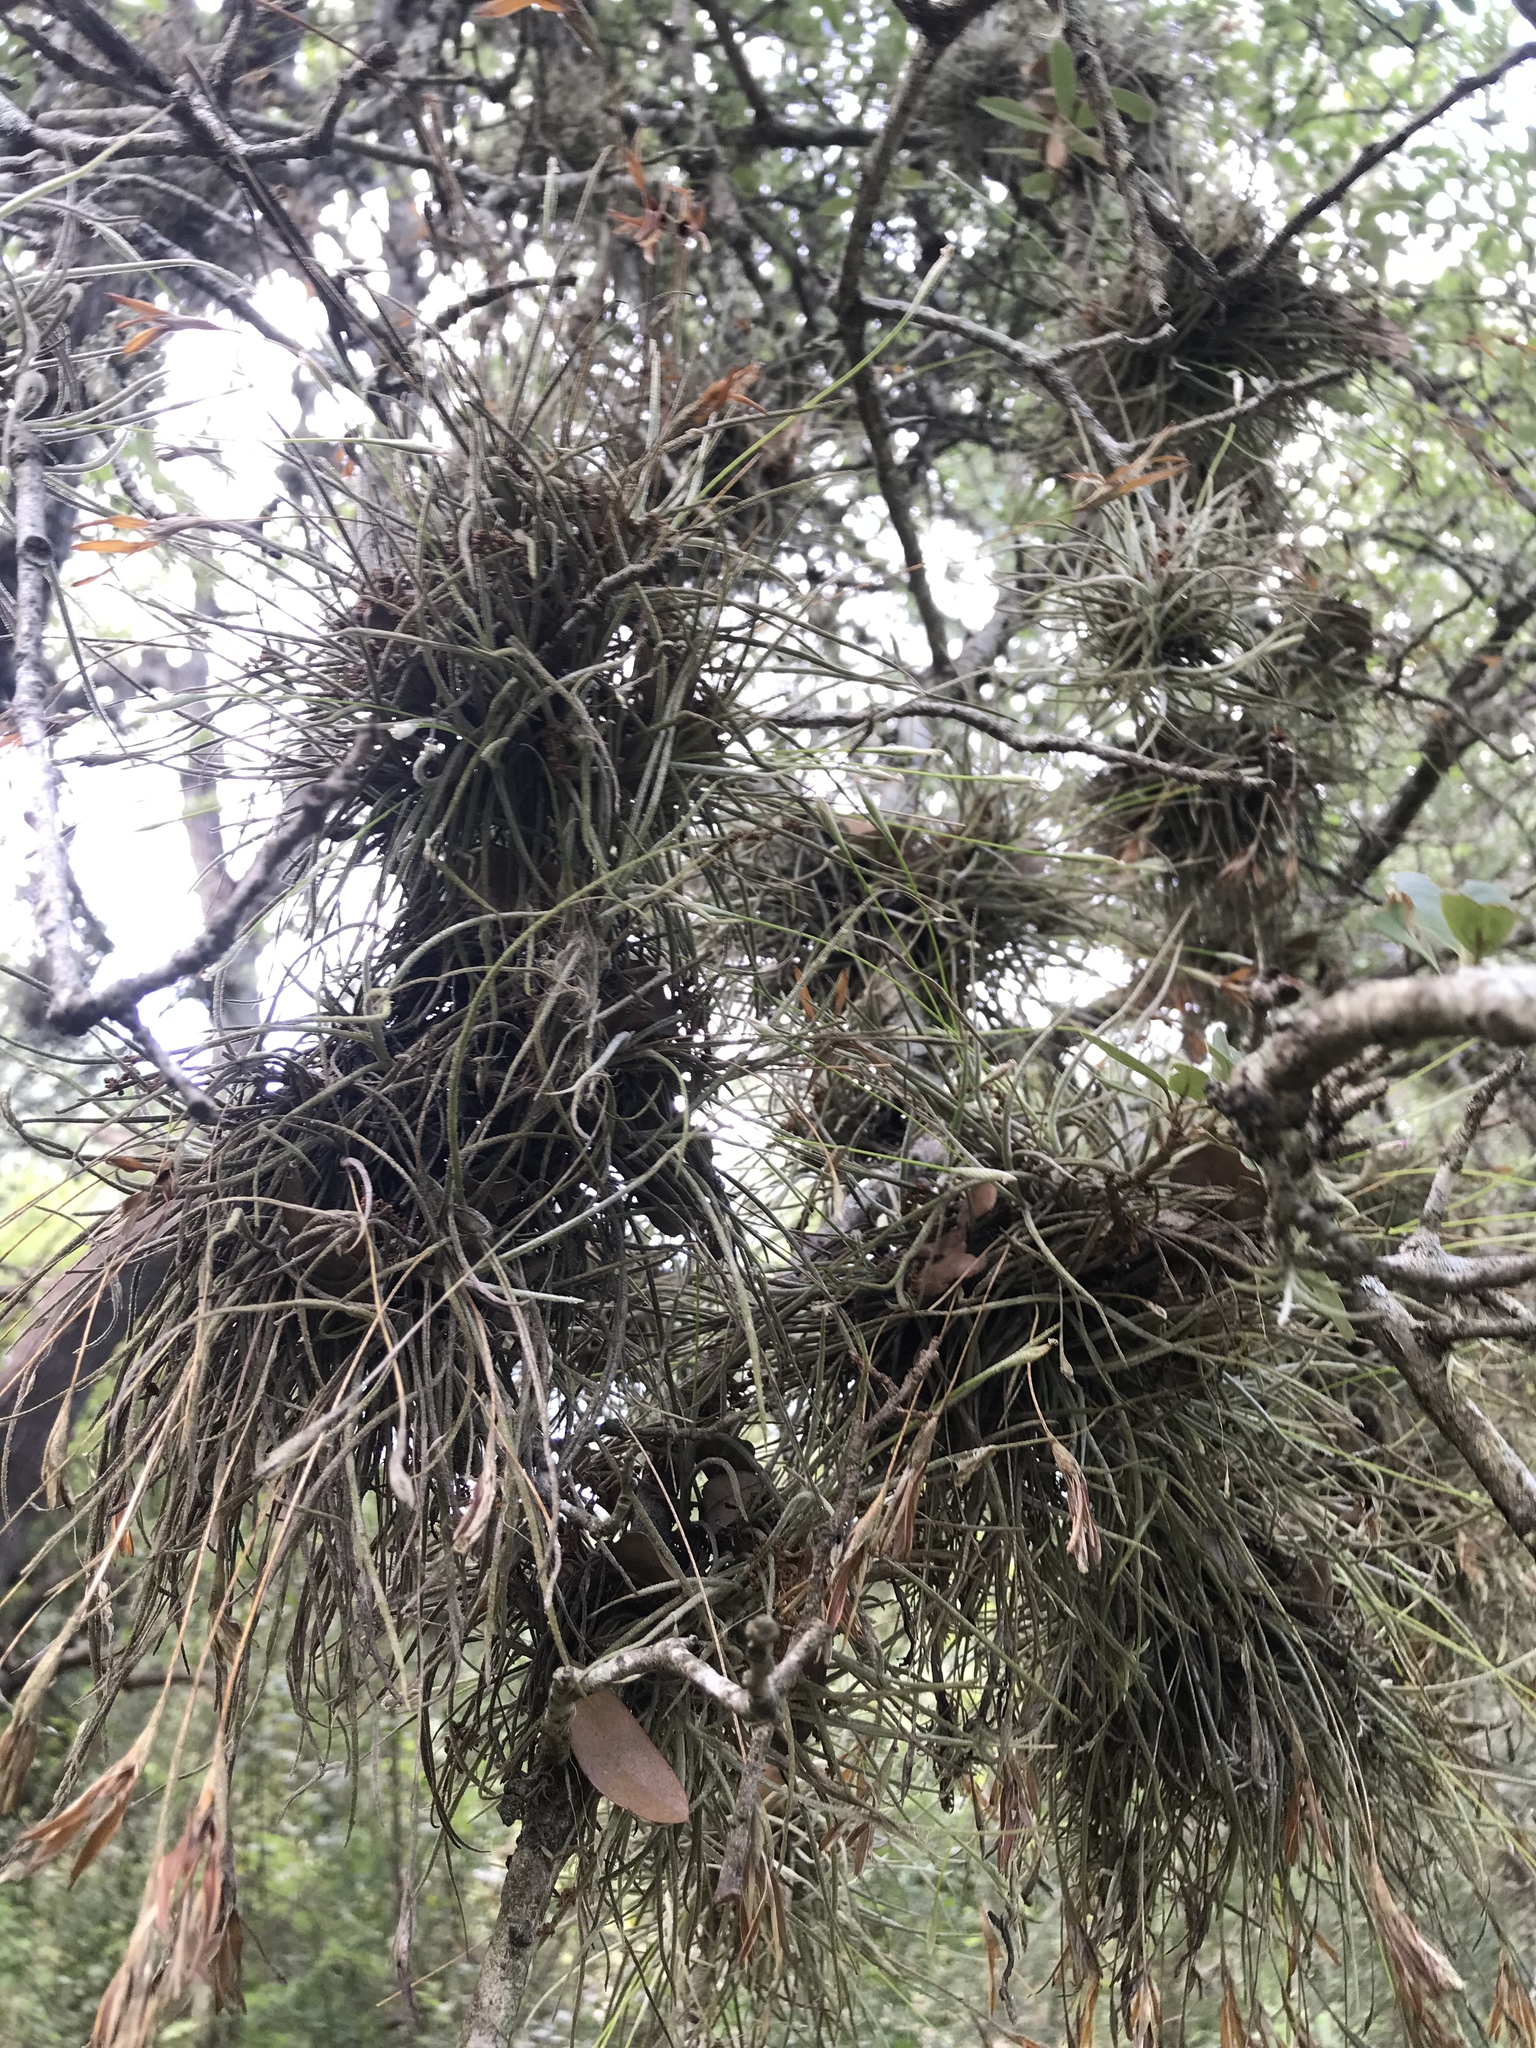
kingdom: Plantae
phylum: Tracheophyta
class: Liliopsida
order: Poales
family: Bromeliaceae
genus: Tillandsia
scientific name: Tillandsia recurvata
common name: Small ballmoss
